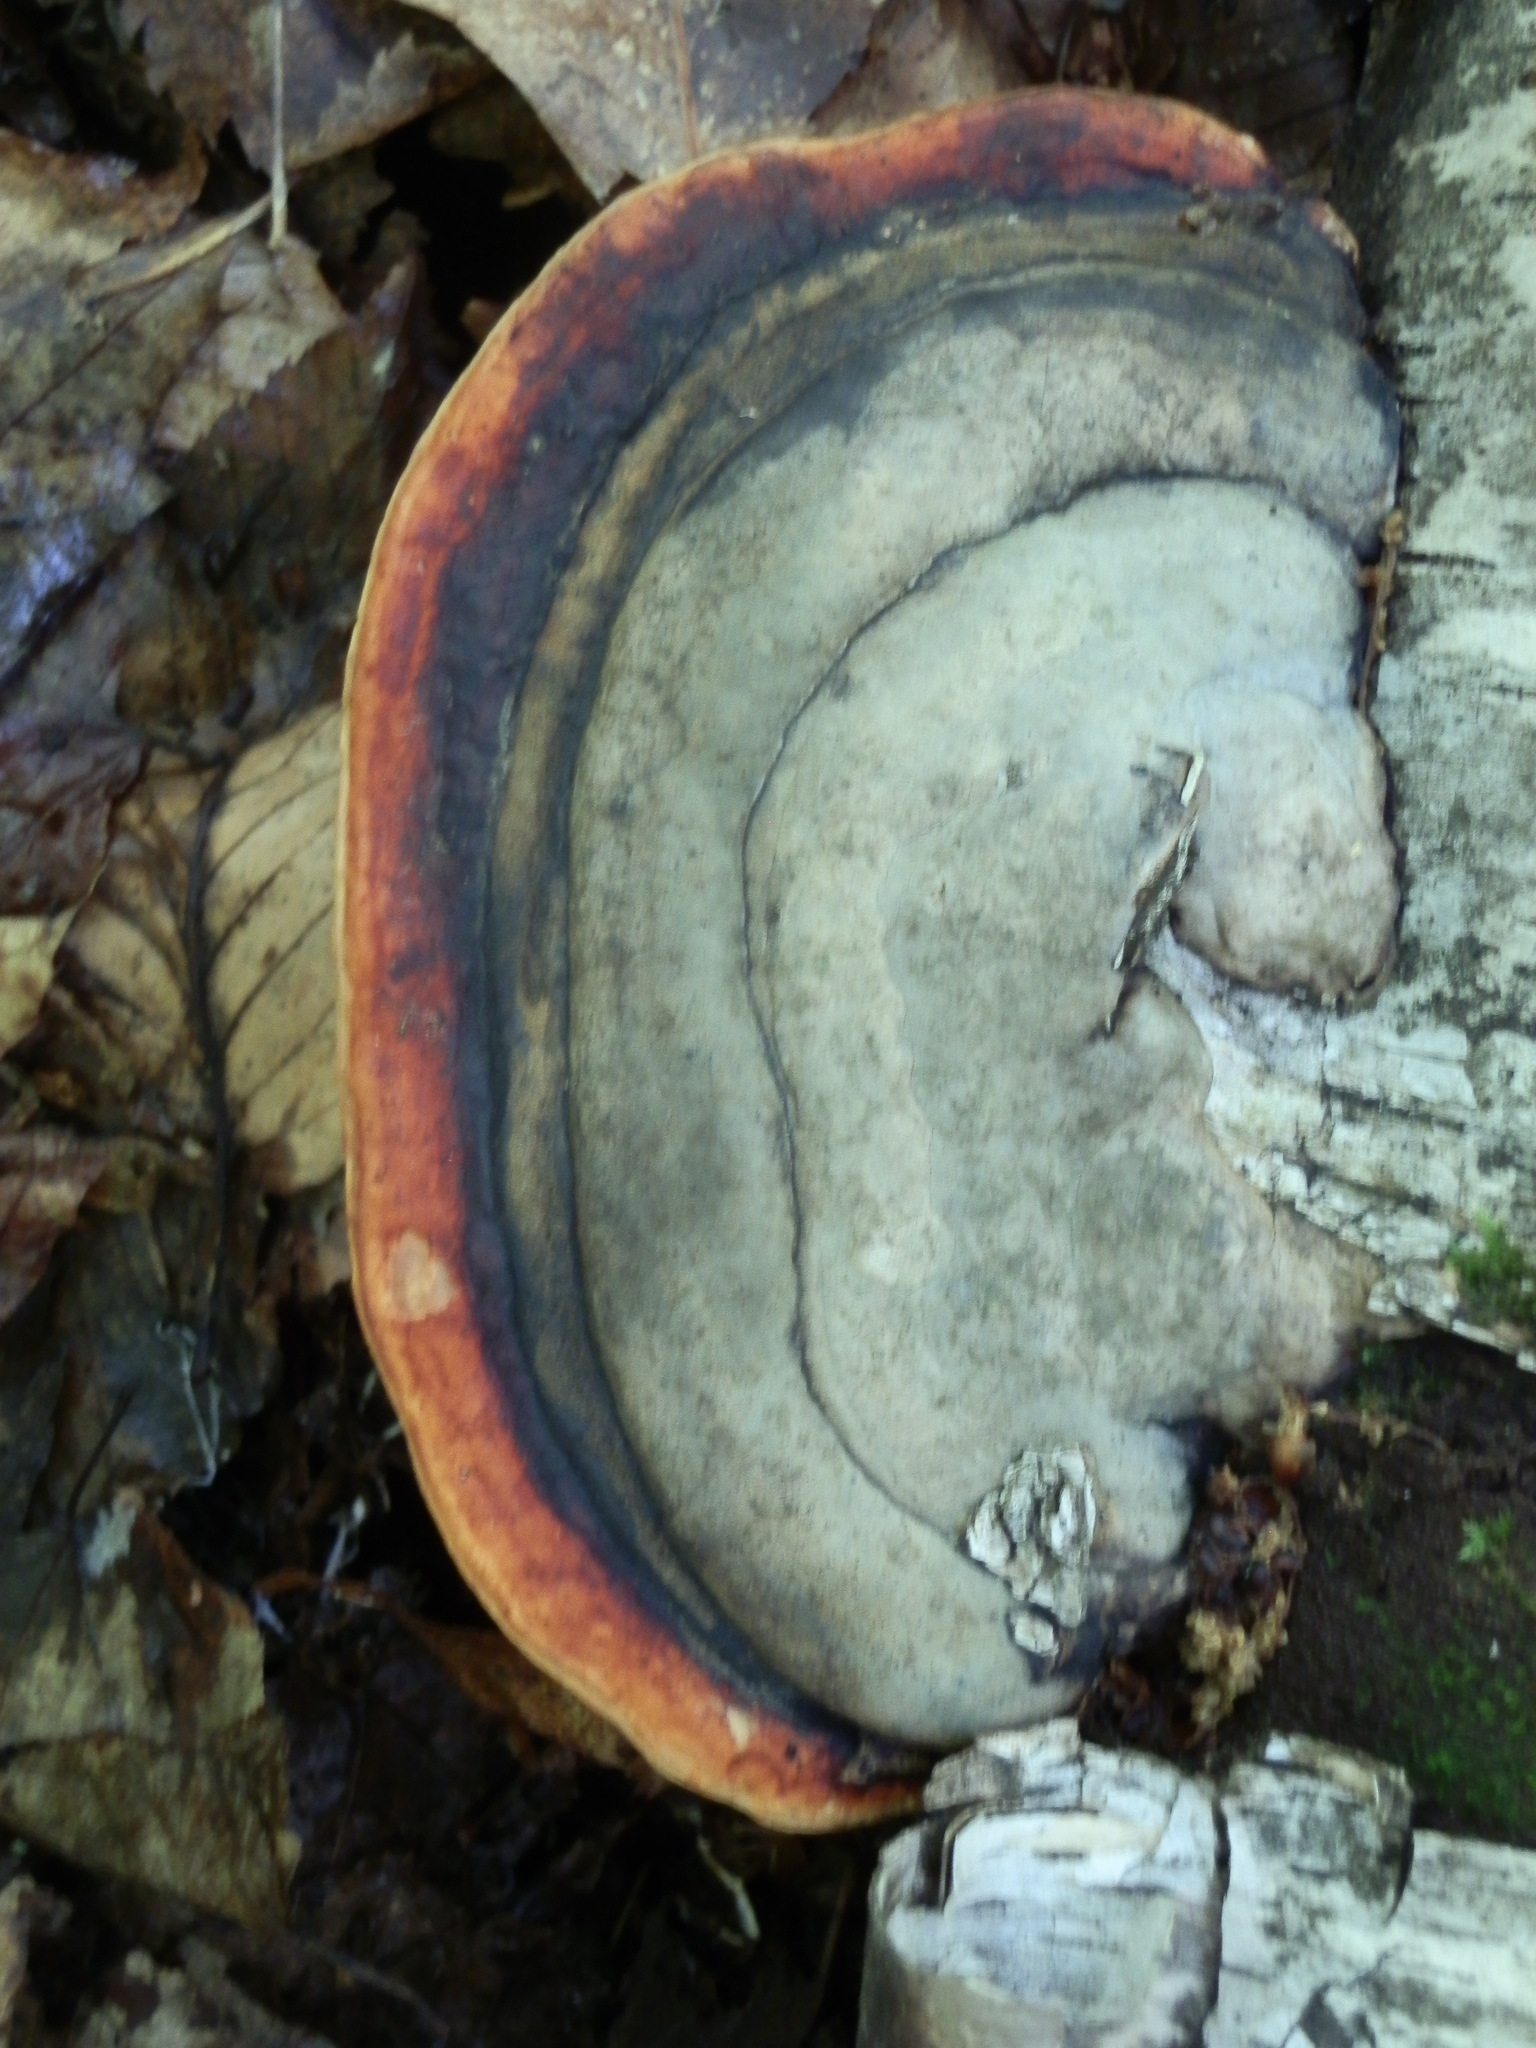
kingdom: Fungi
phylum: Basidiomycota
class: Agaricomycetes
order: Polyporales
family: Fomitopsidaceae
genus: Fomitopsis
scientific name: Fomitopsis mounceae
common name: Northern red belt
